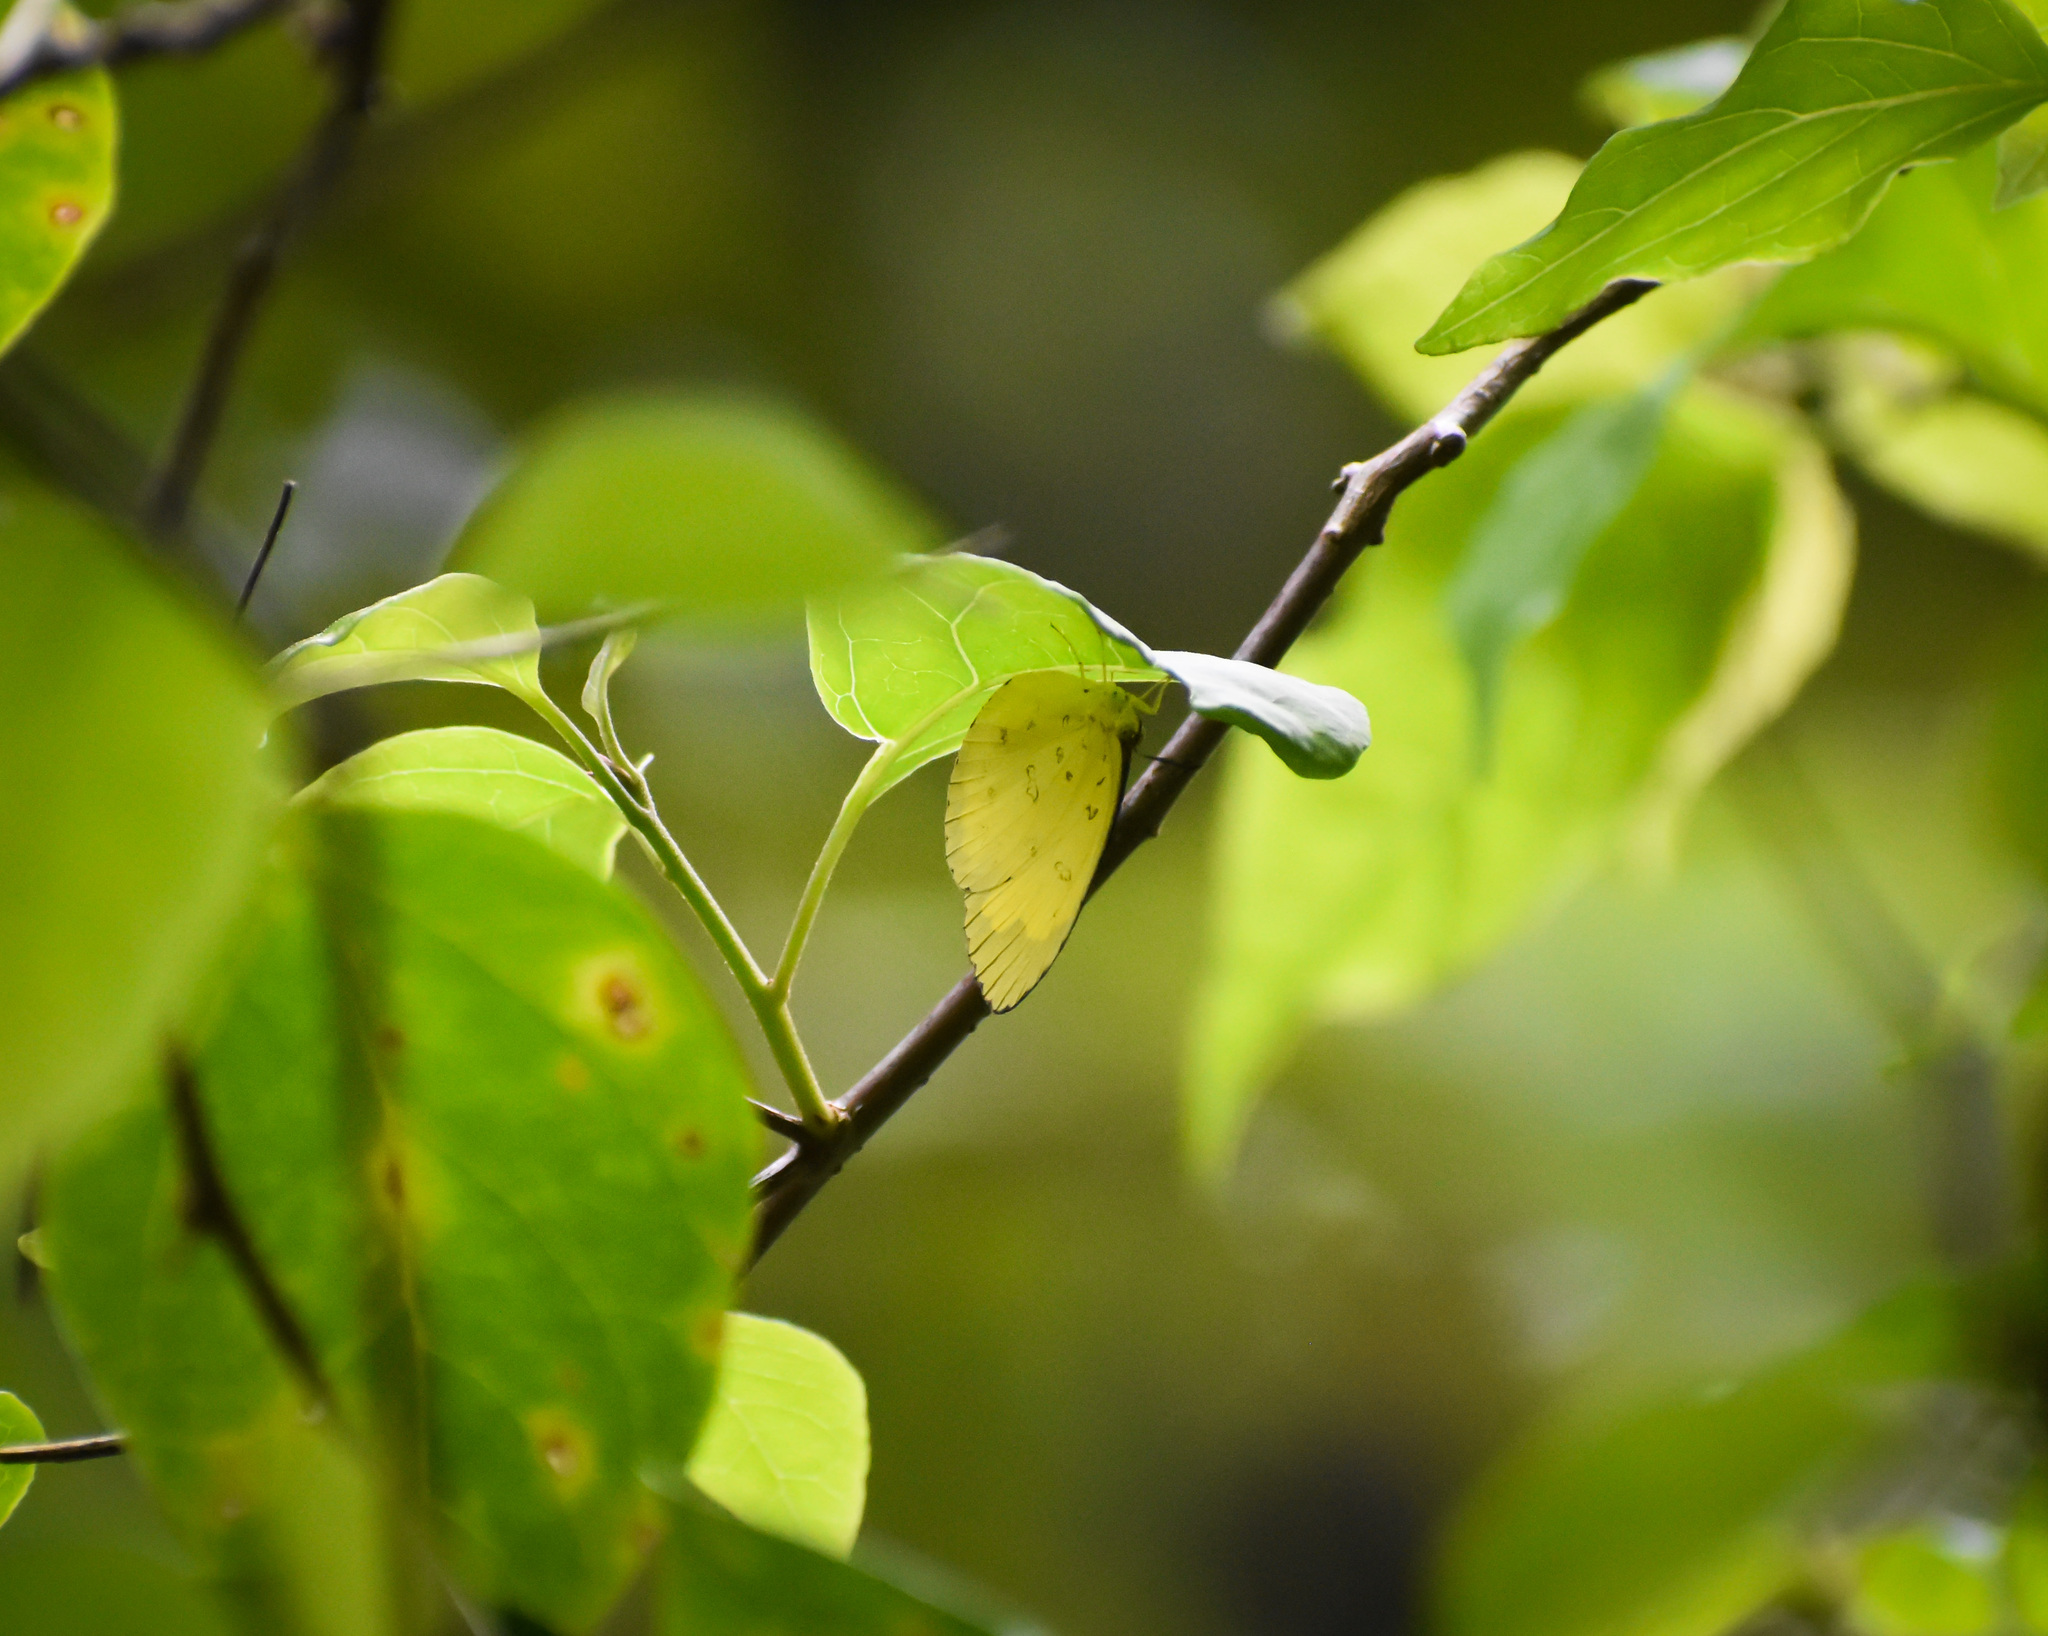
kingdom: Animalia
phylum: Arthropoda
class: Insecta
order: Lepidoptera
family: Pieridae
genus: Eurema
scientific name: Eurema blanda
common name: Three-spot grass yellow
